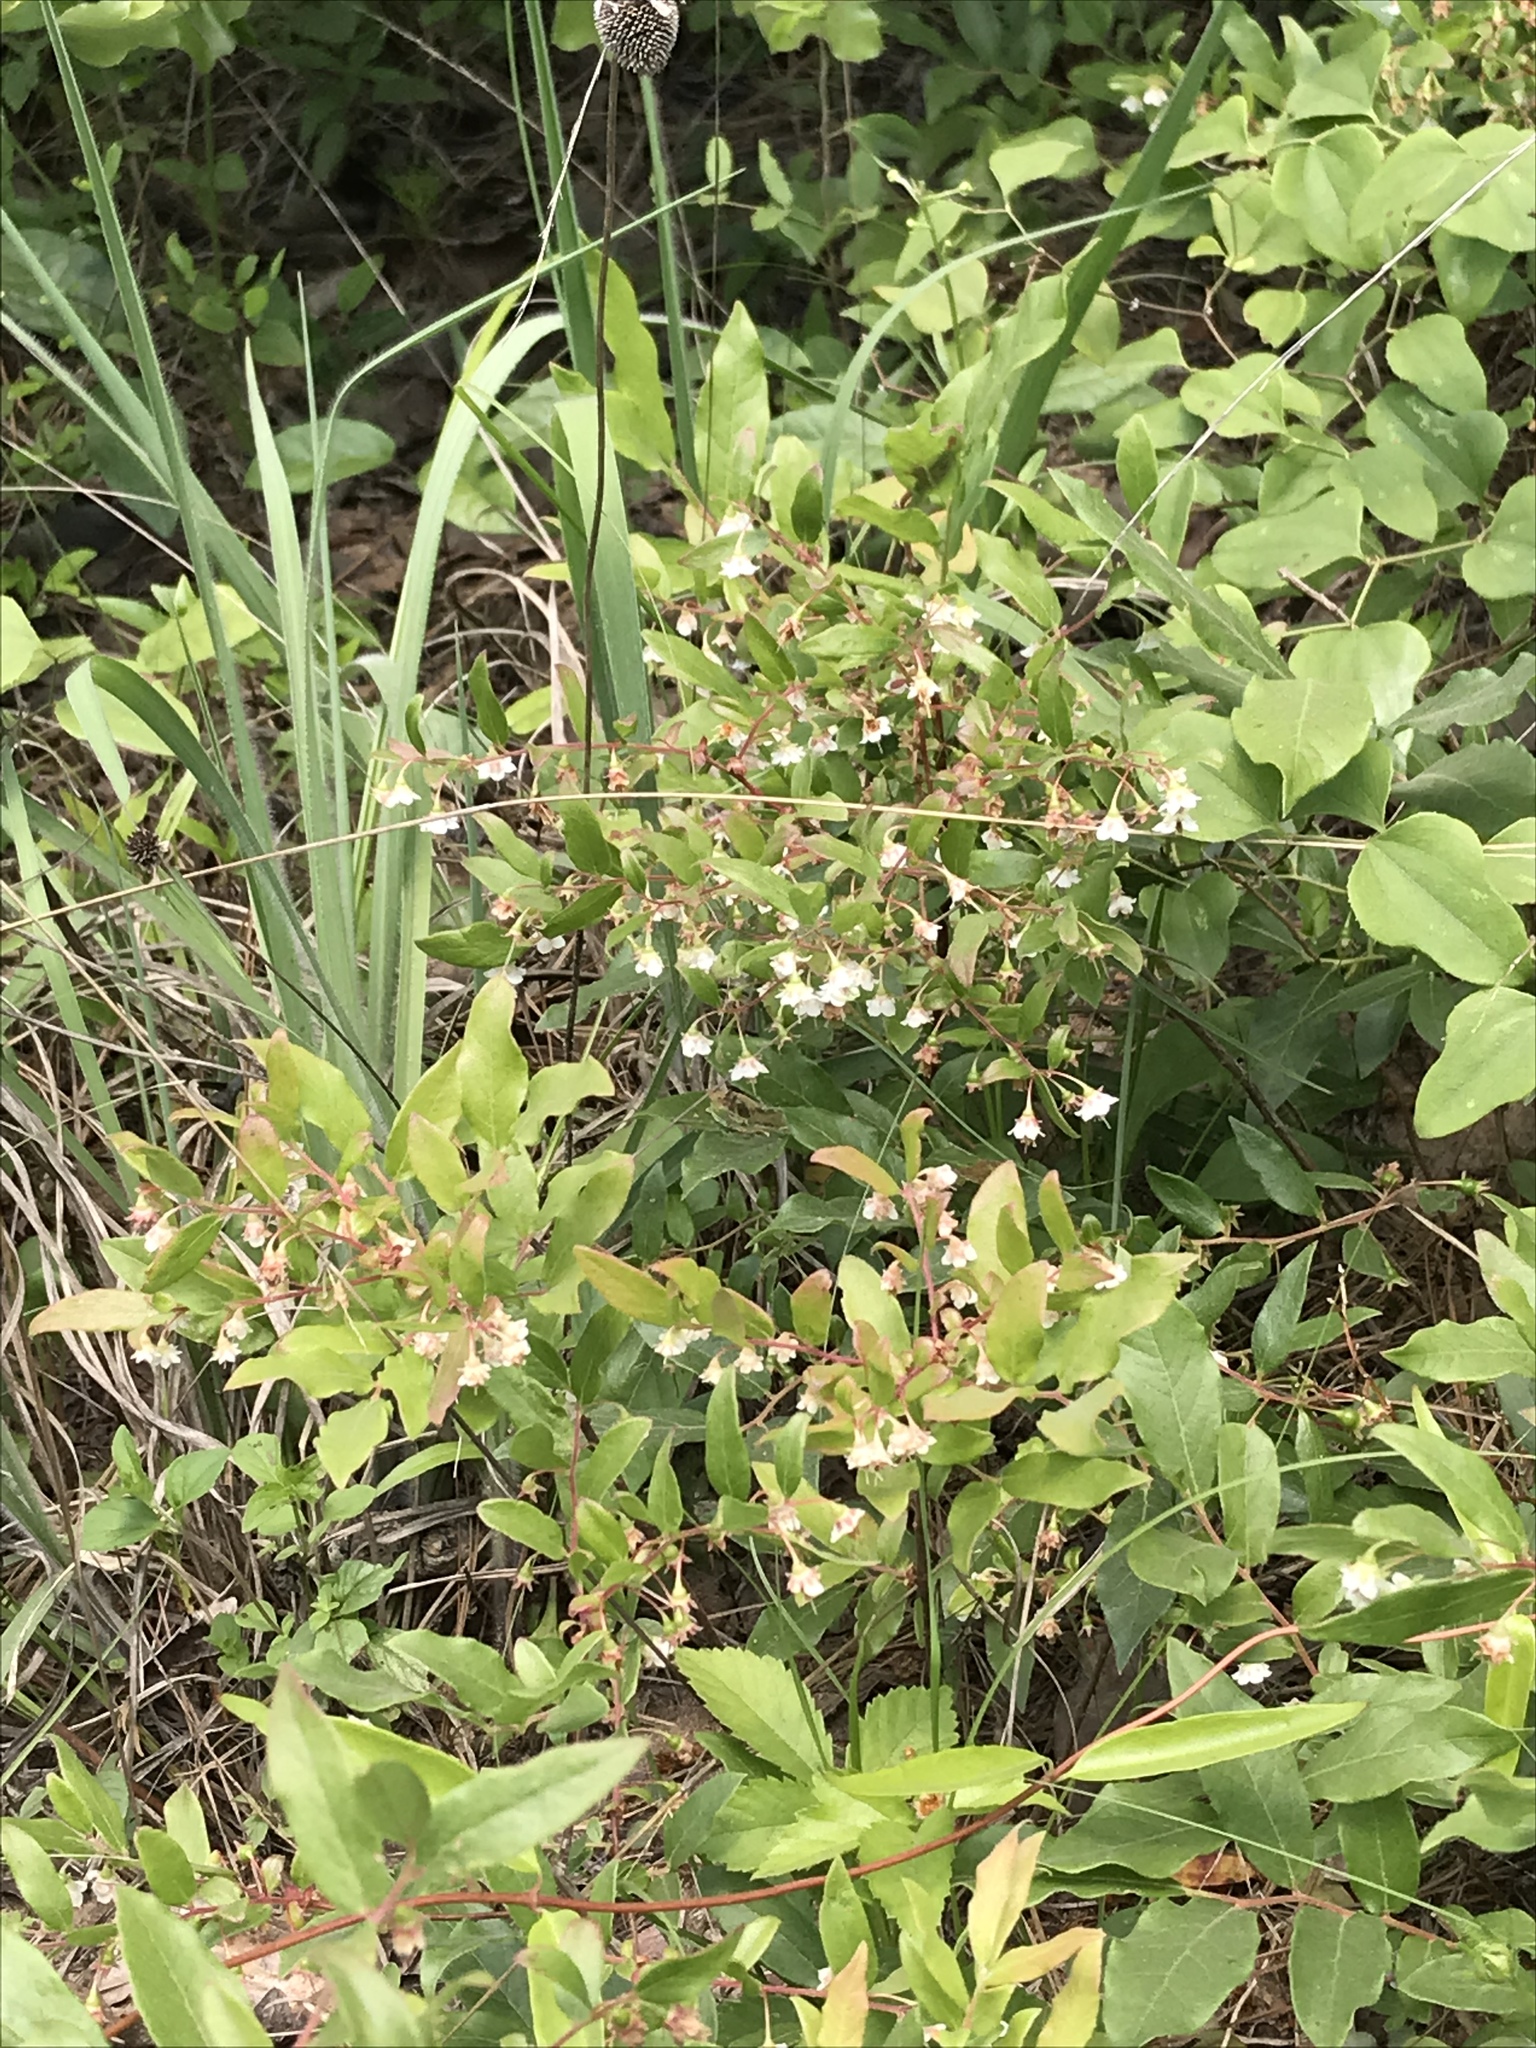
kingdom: Plantae
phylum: Tracheophyta
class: Magnoliopsida
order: Ericales
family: Ericaceae
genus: Vaccinium
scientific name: Vaccinium stamineum
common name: Deerberry
